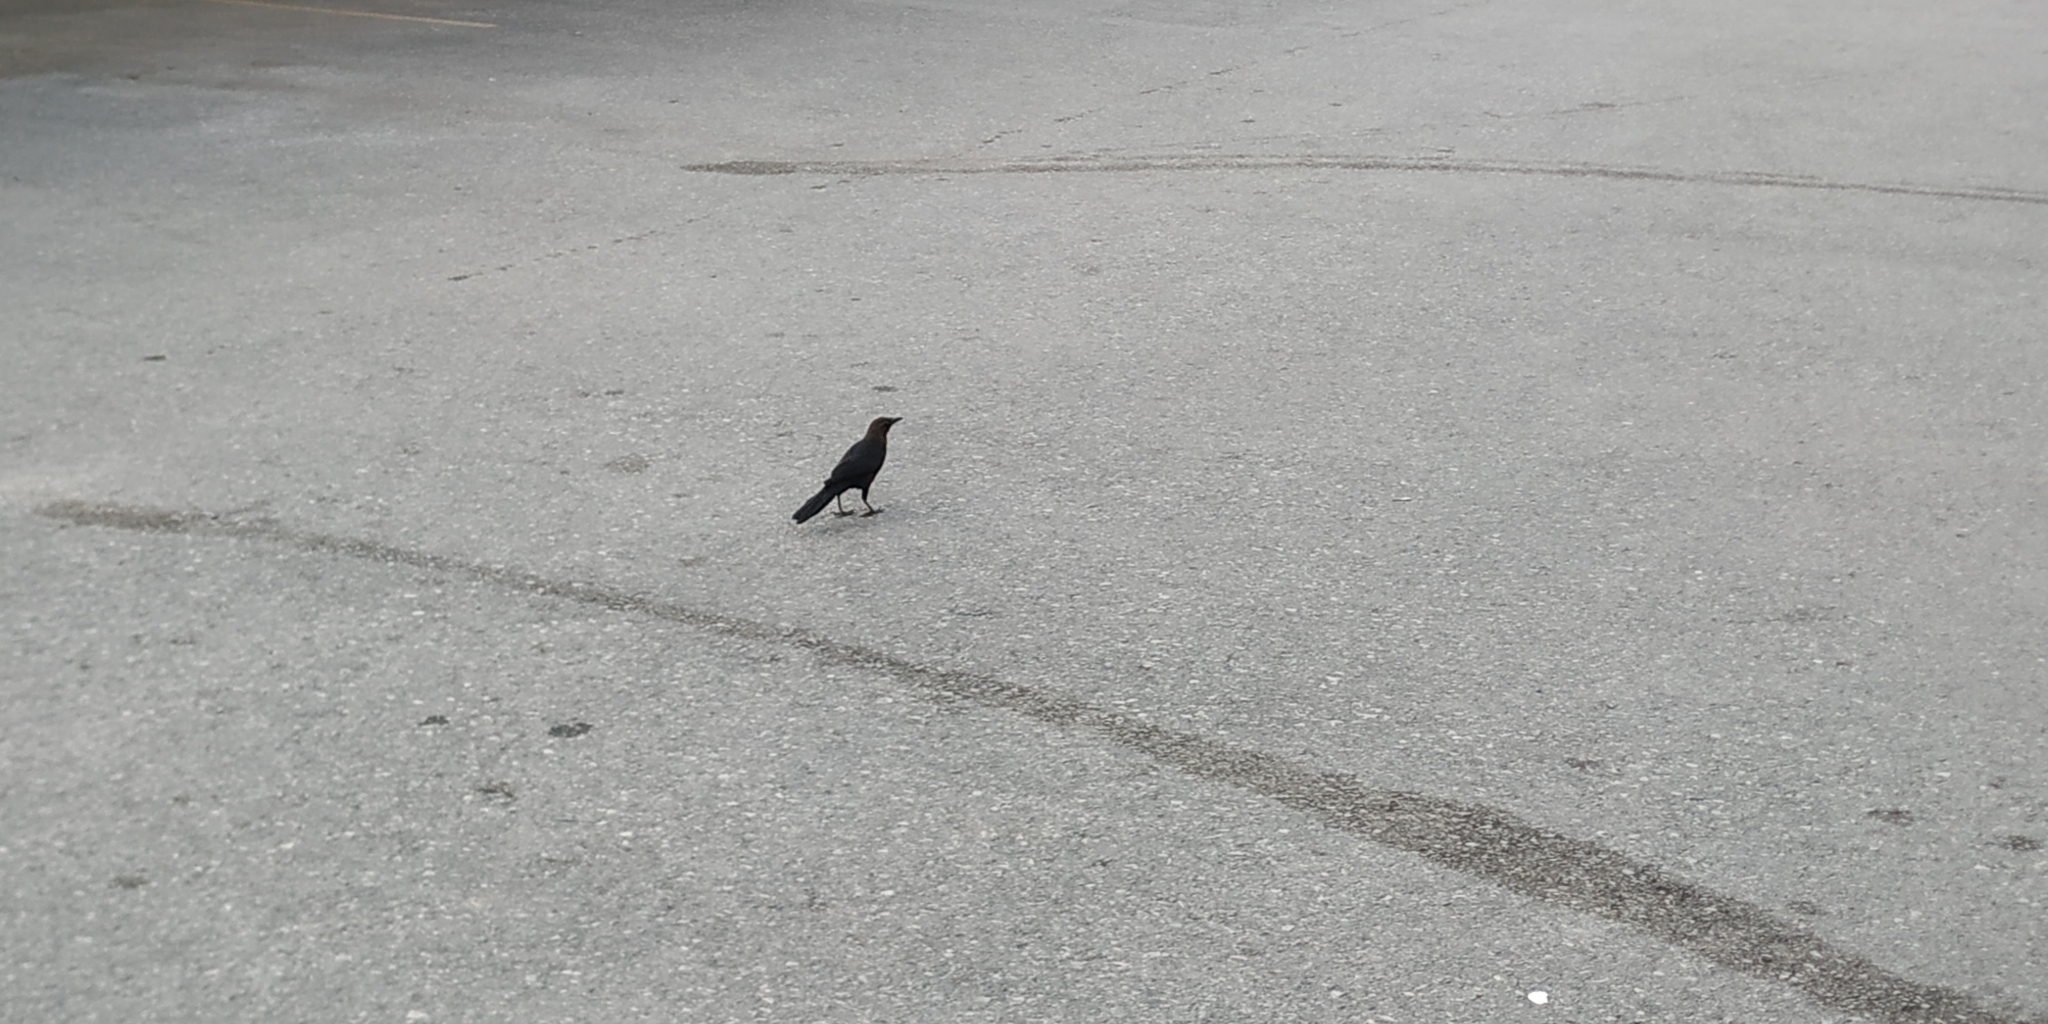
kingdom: Animalia
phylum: Chordata
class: Aves
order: Passeriformes
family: Icteridae
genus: Quiscalus
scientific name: Quiscalus mexicanus
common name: Great-tailed grackle
